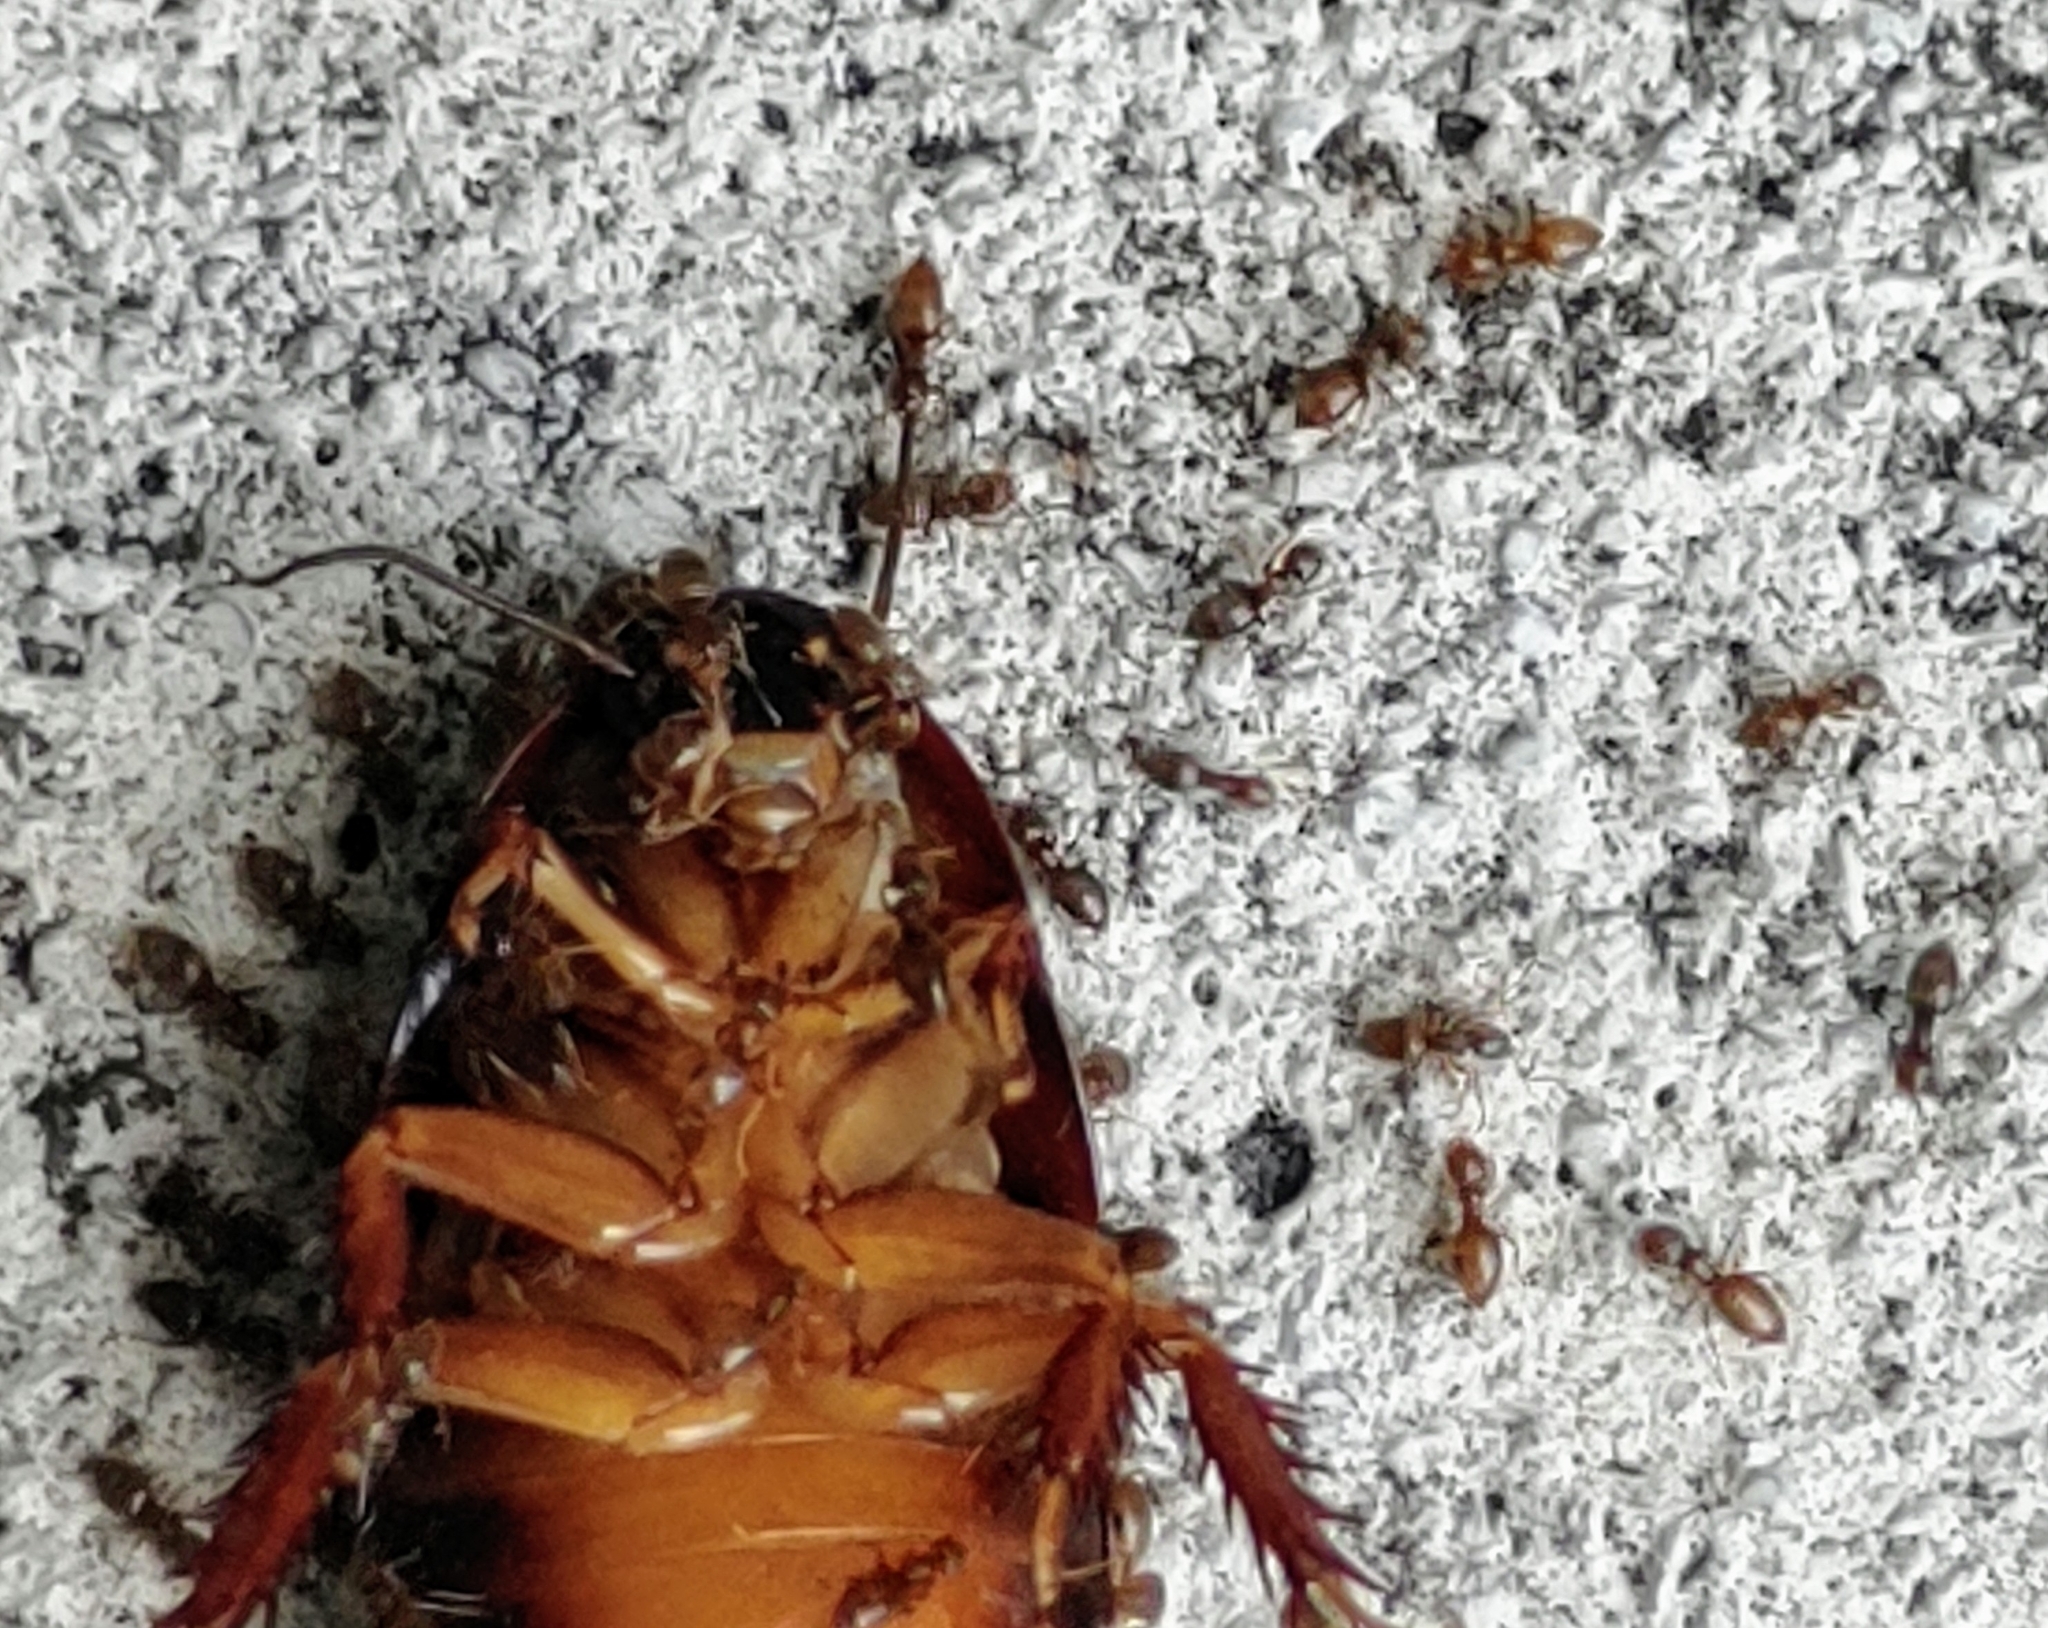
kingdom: Animalia
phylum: Arthropoda
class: Insecta
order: Hymenoptera
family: Formicidae
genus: Brachymyrmex
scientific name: Brachymyrmex obscurior
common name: Obscure rover ant
